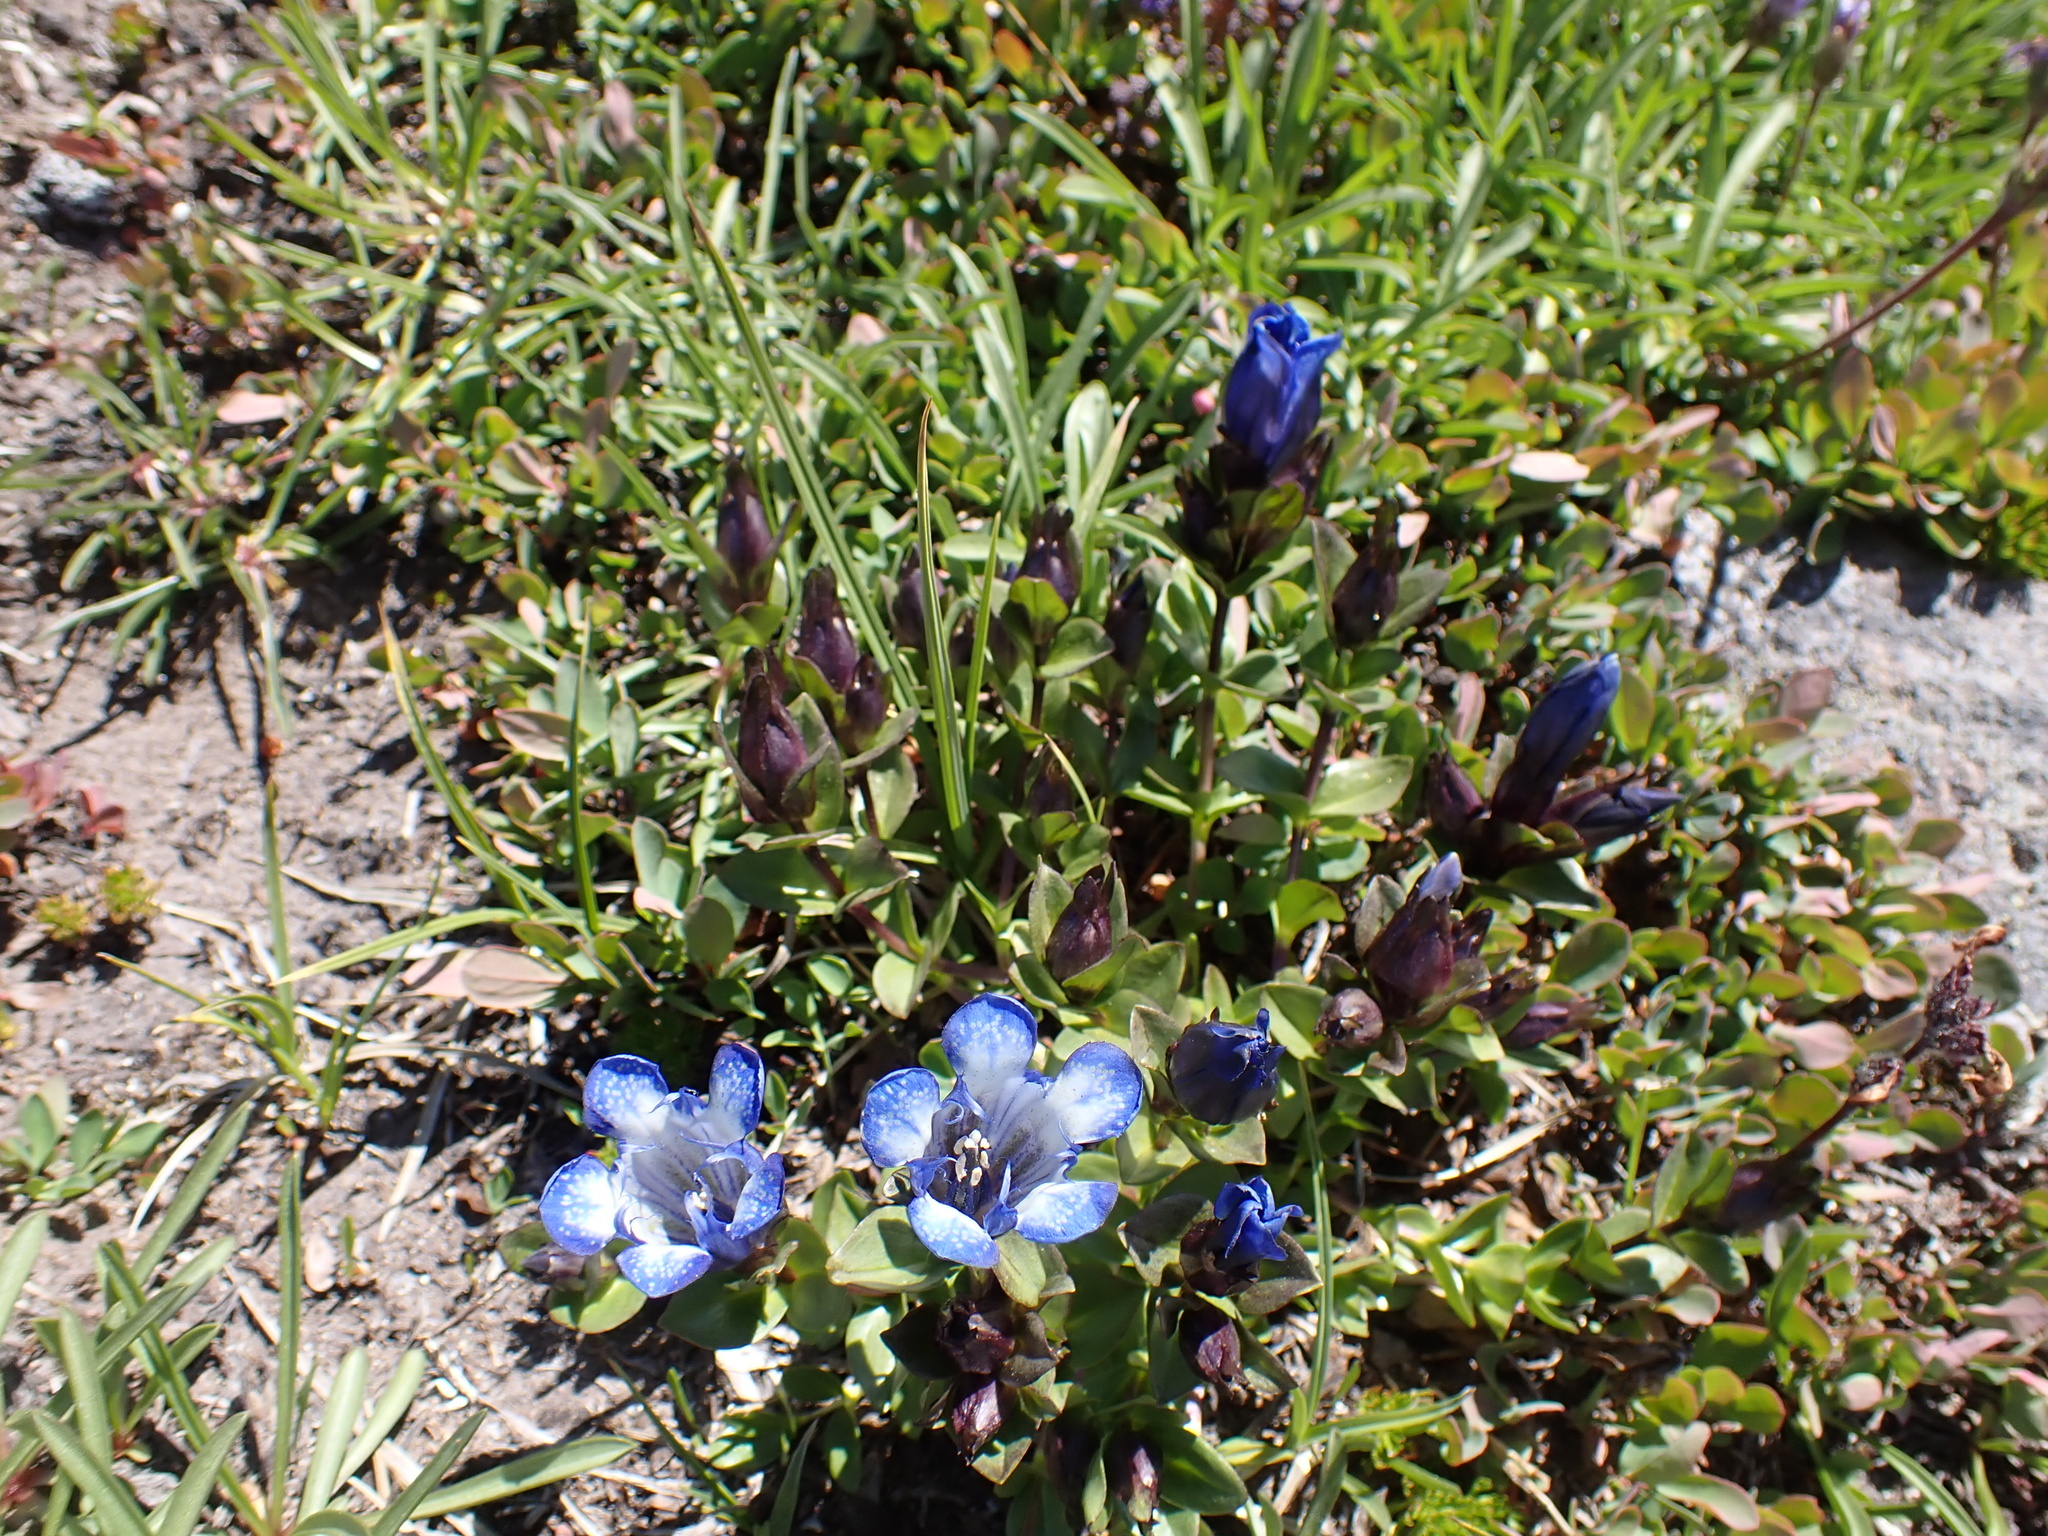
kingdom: Plantae
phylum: Tracheophyta
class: Magnoliopsida
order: Gentianales
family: Gentianaceae
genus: Gentiana
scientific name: Gentiana calycosa
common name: Rainier pleated gentian
